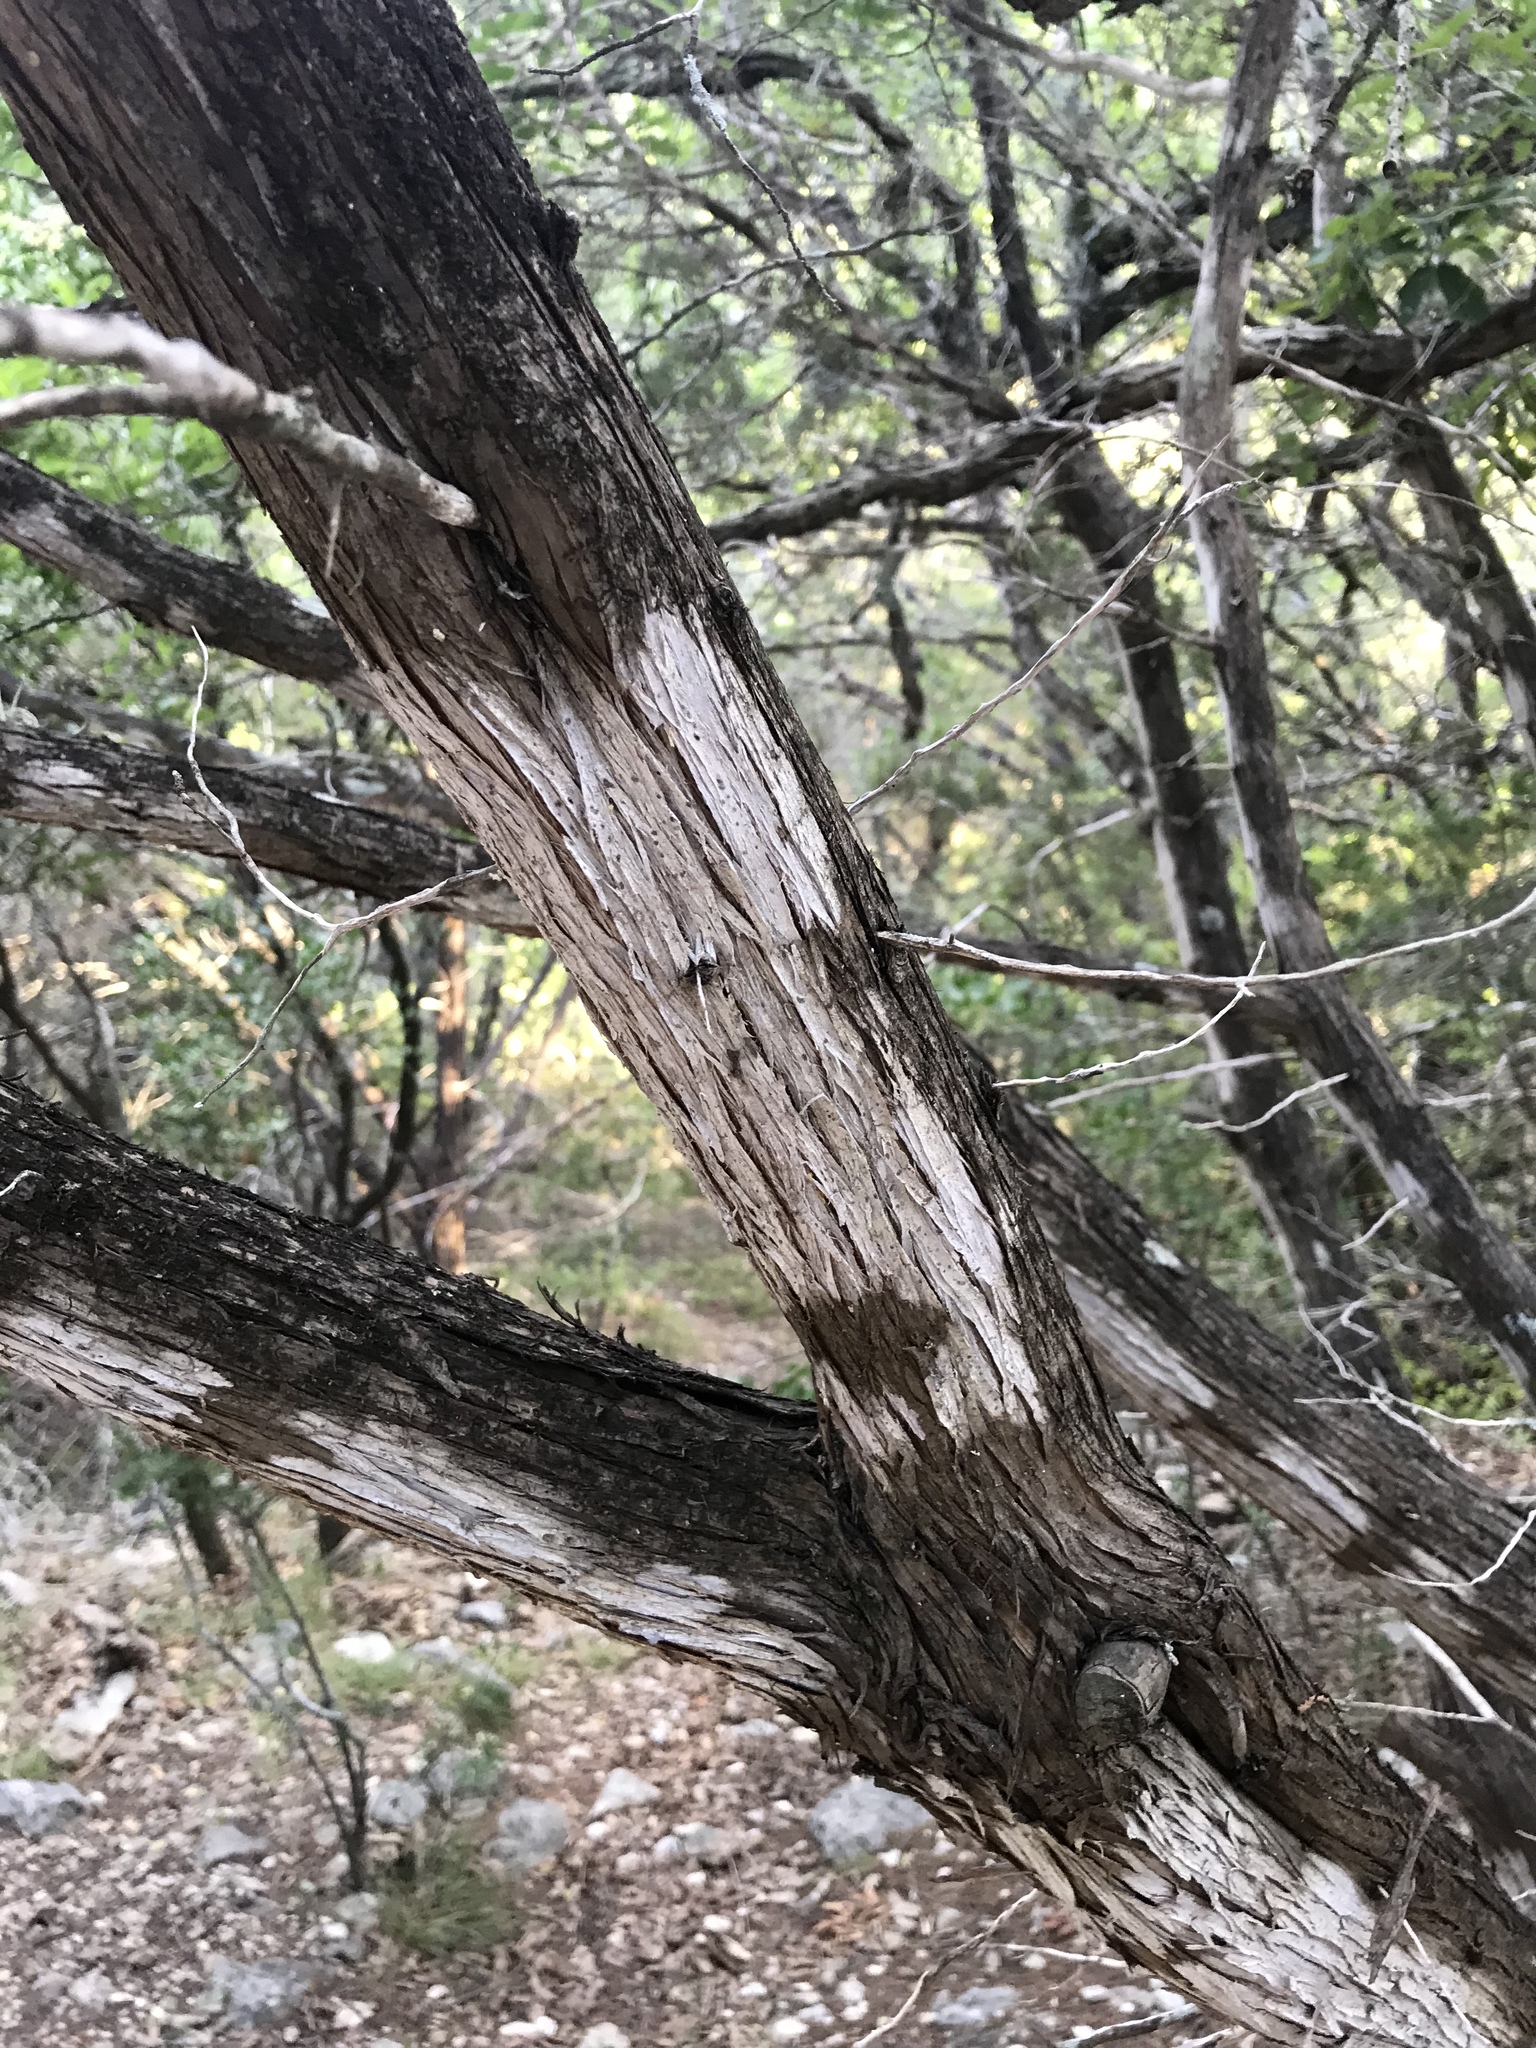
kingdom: Fungi
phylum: Ascomycota
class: Lecanoromycetes
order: Ostropales
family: Stictidaceae
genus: Robergea
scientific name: Robergea
